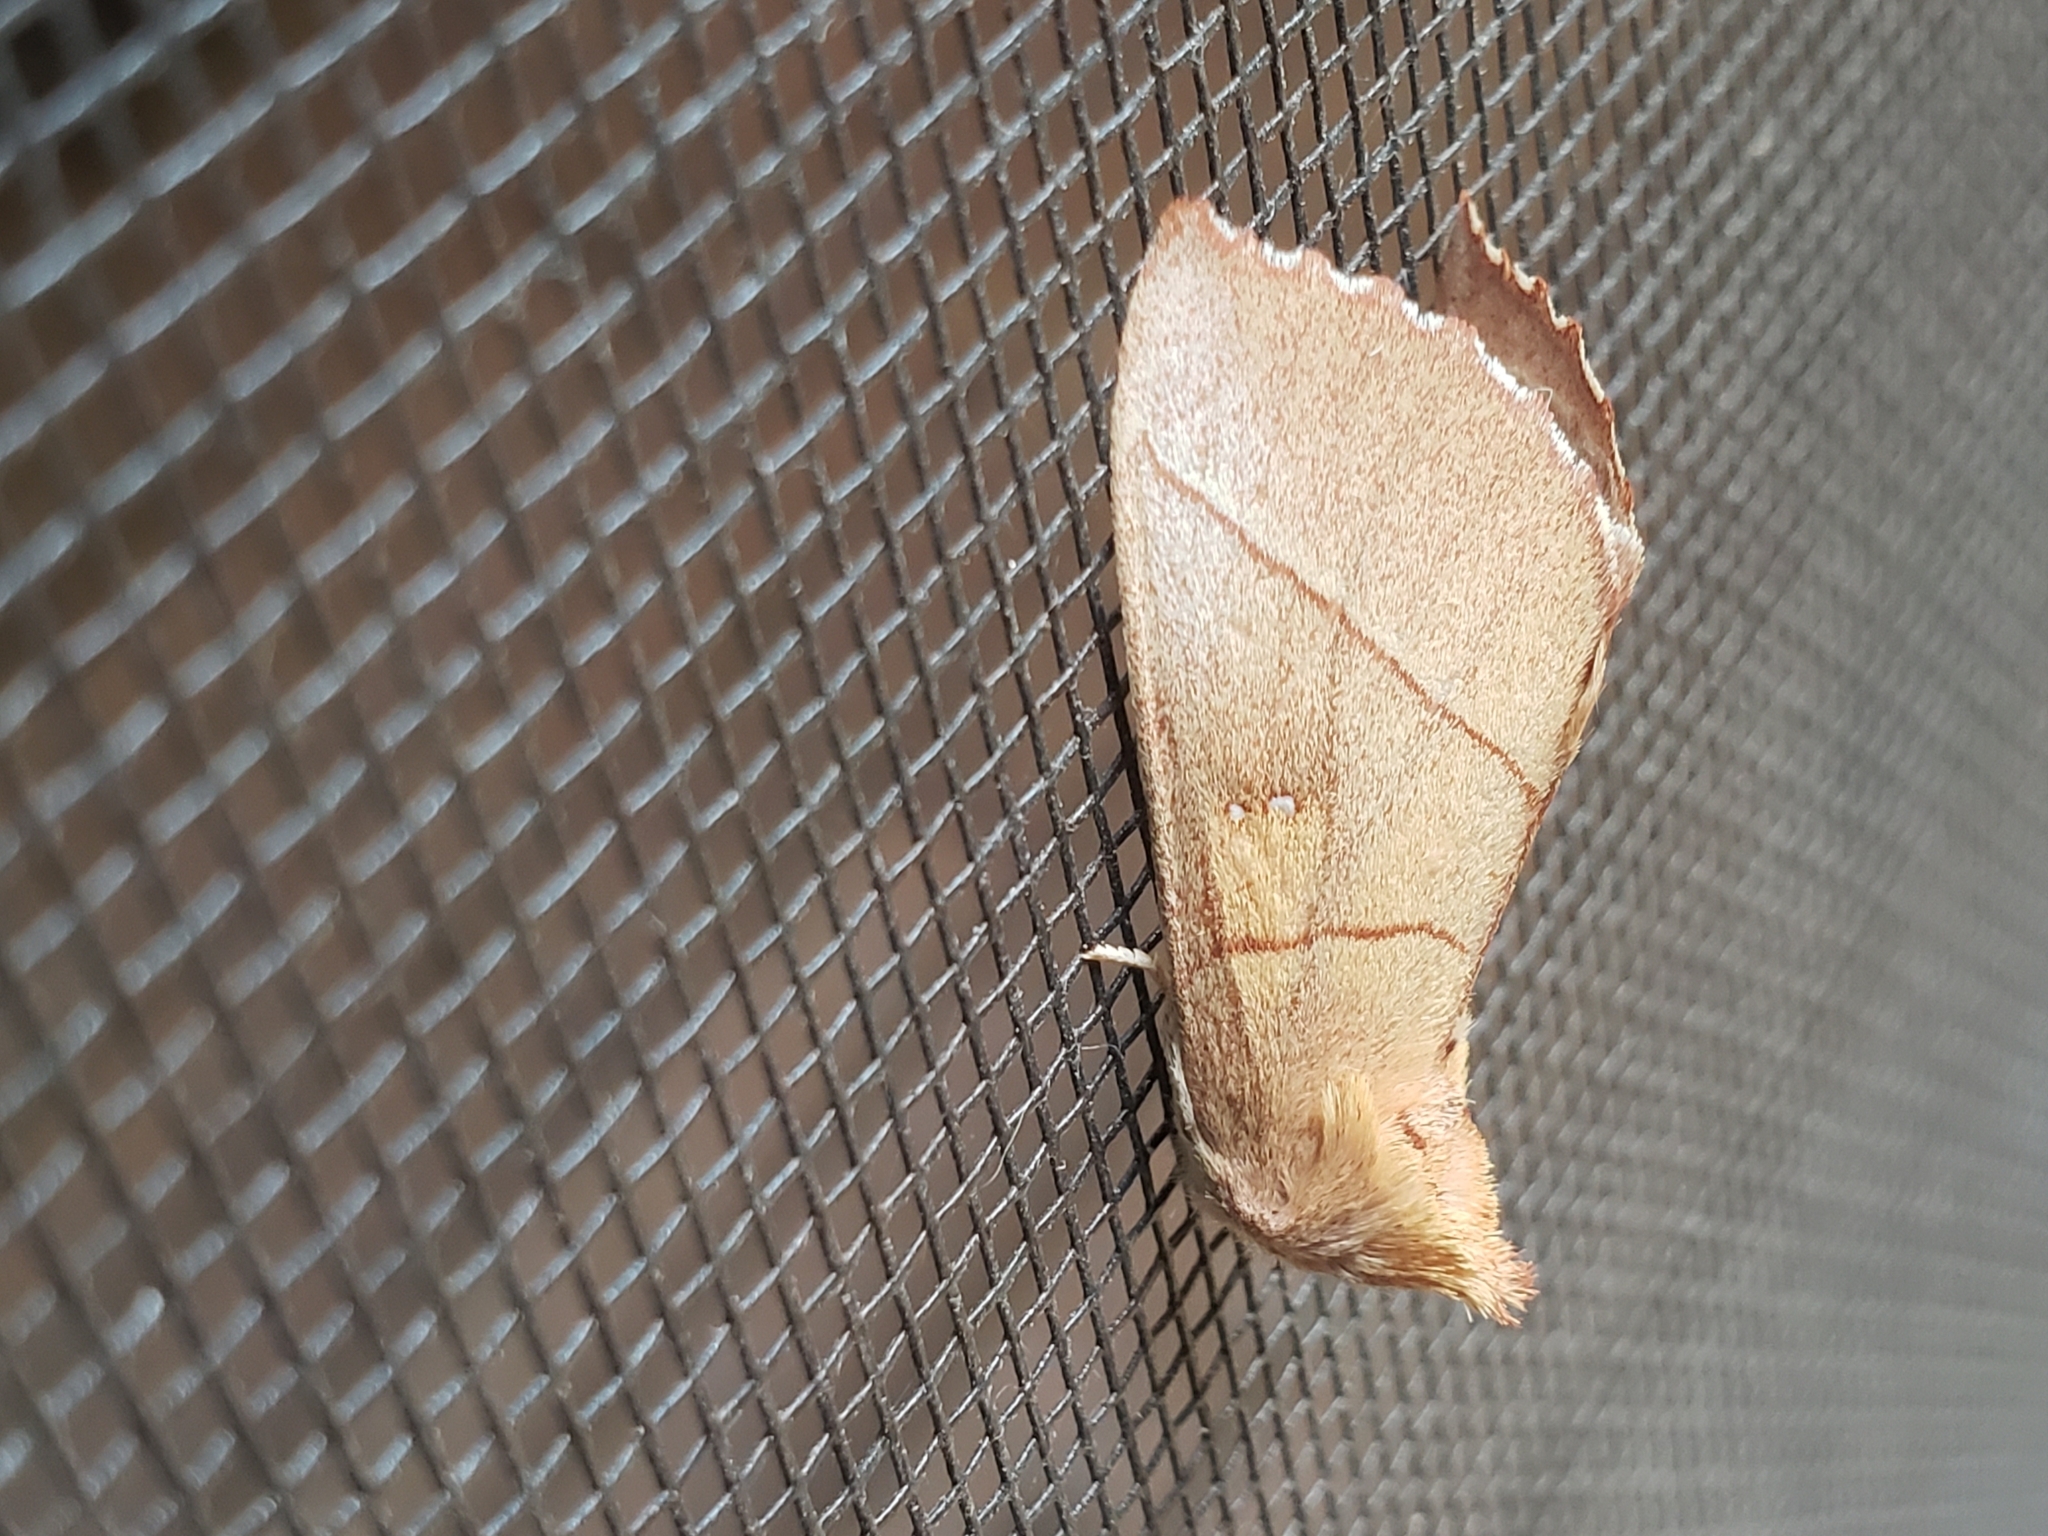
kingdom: Animalia
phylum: Arthropoda
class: Insecta
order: Lepidoptera
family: Notodontidae
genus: Nadata
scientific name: Nadata gibbosa
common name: White-dotted prominent
